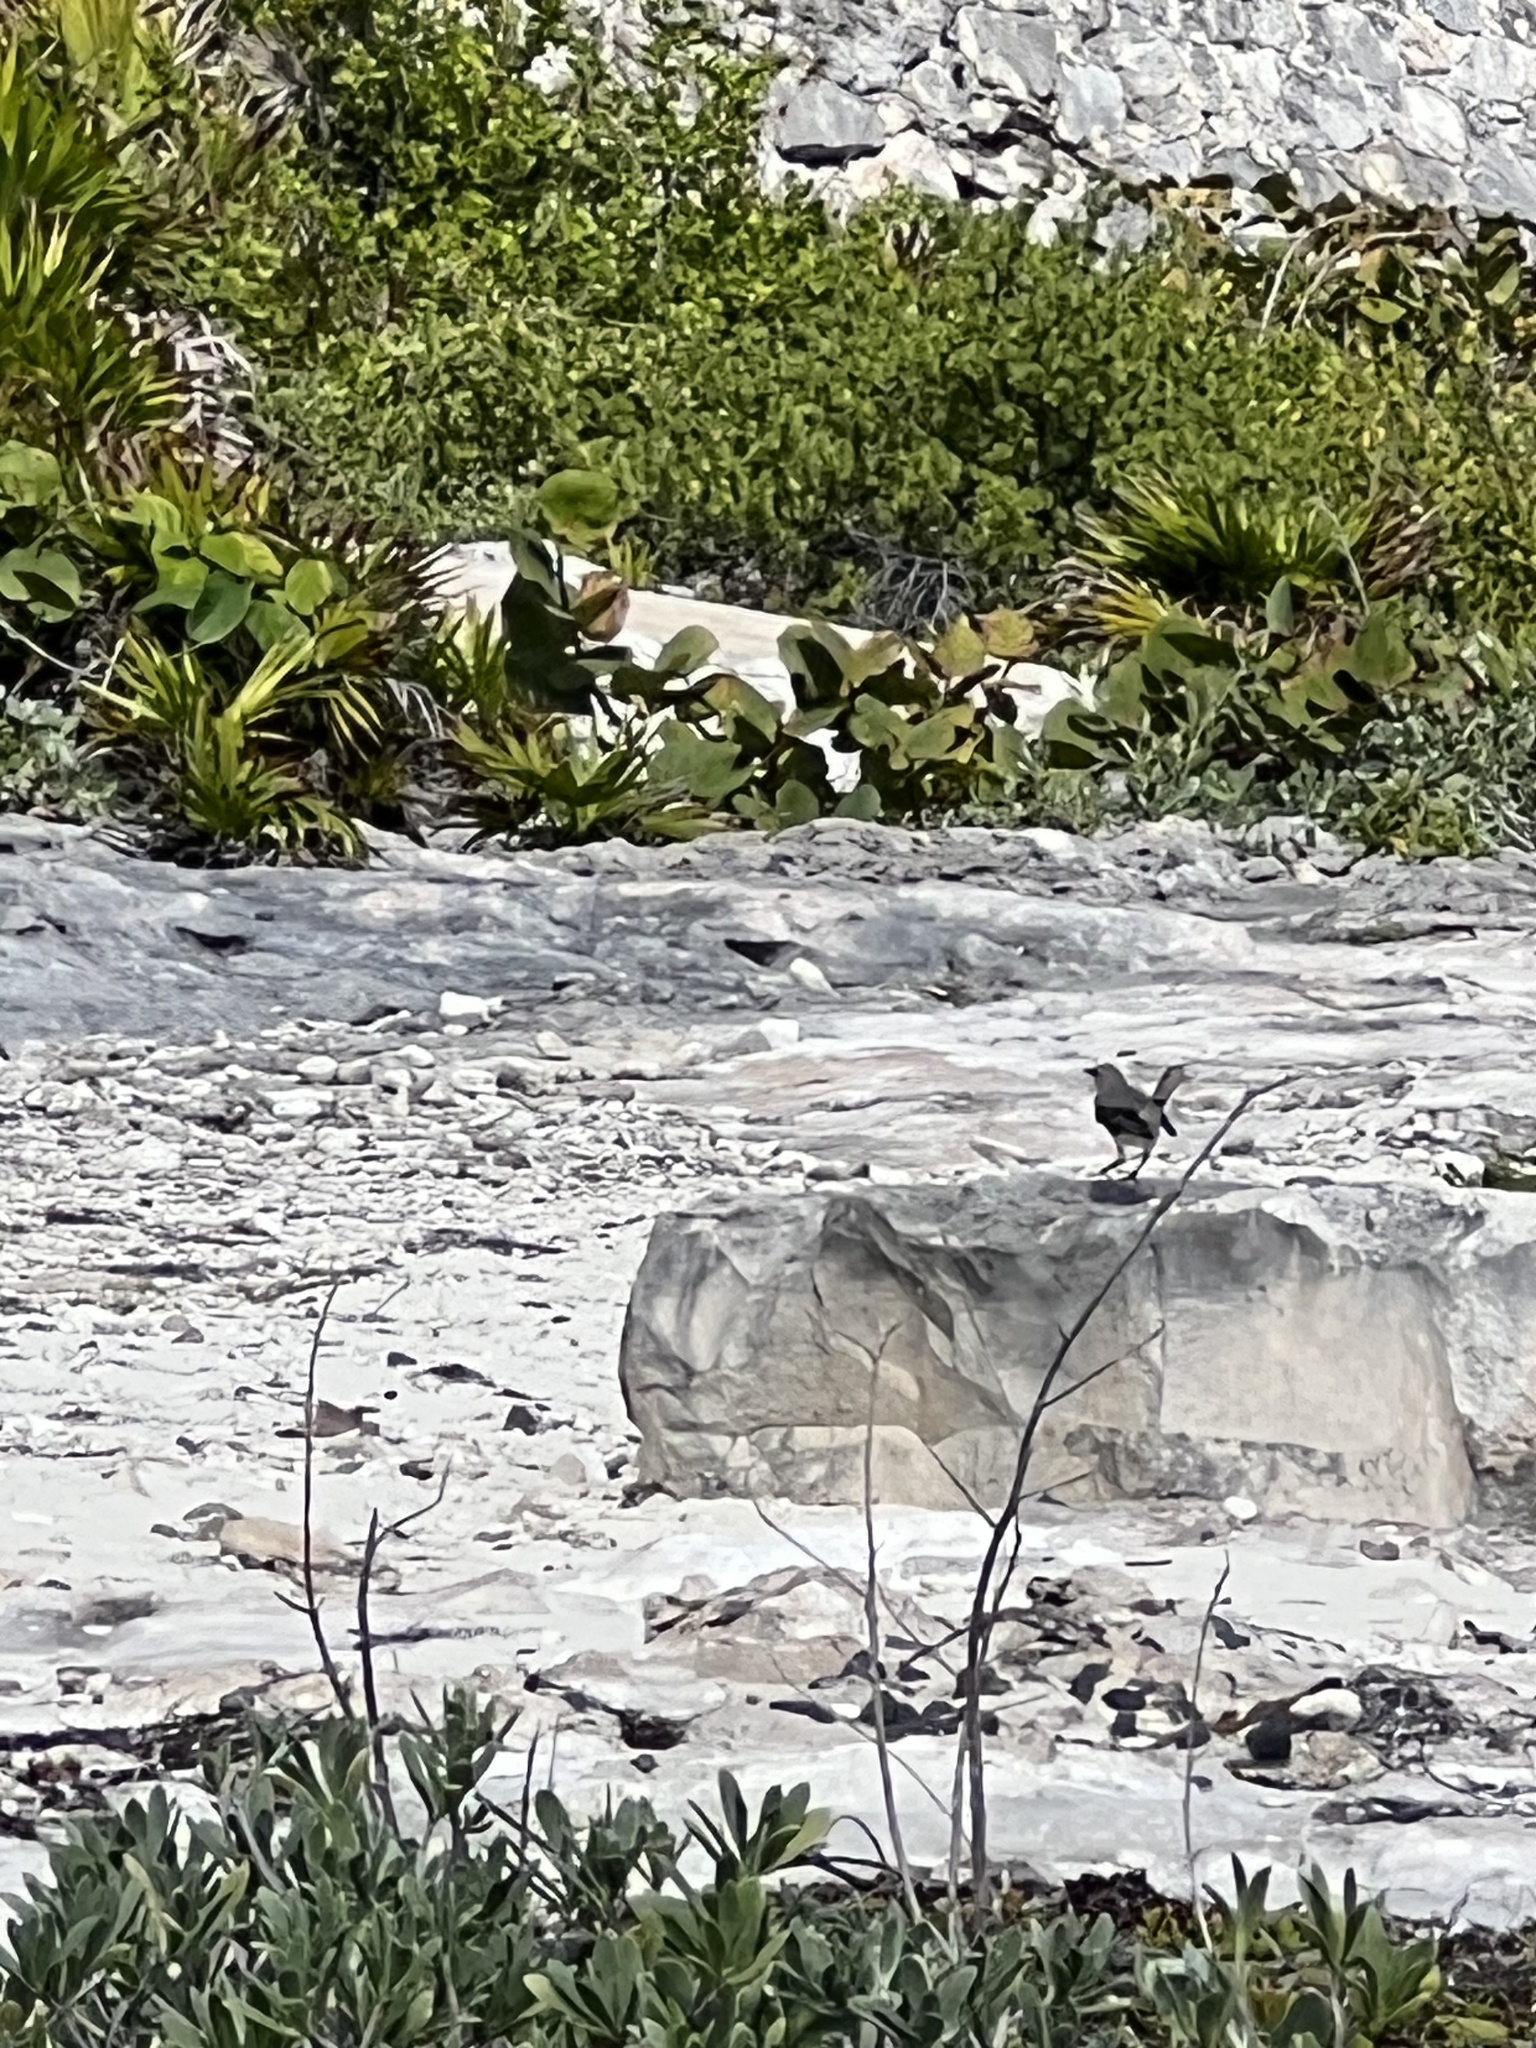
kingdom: Animalia
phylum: Chordata
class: Aves
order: Passeriformes
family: Mimidae
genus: Mimus
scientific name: Mimus gilvus
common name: Tropical mockingbird
